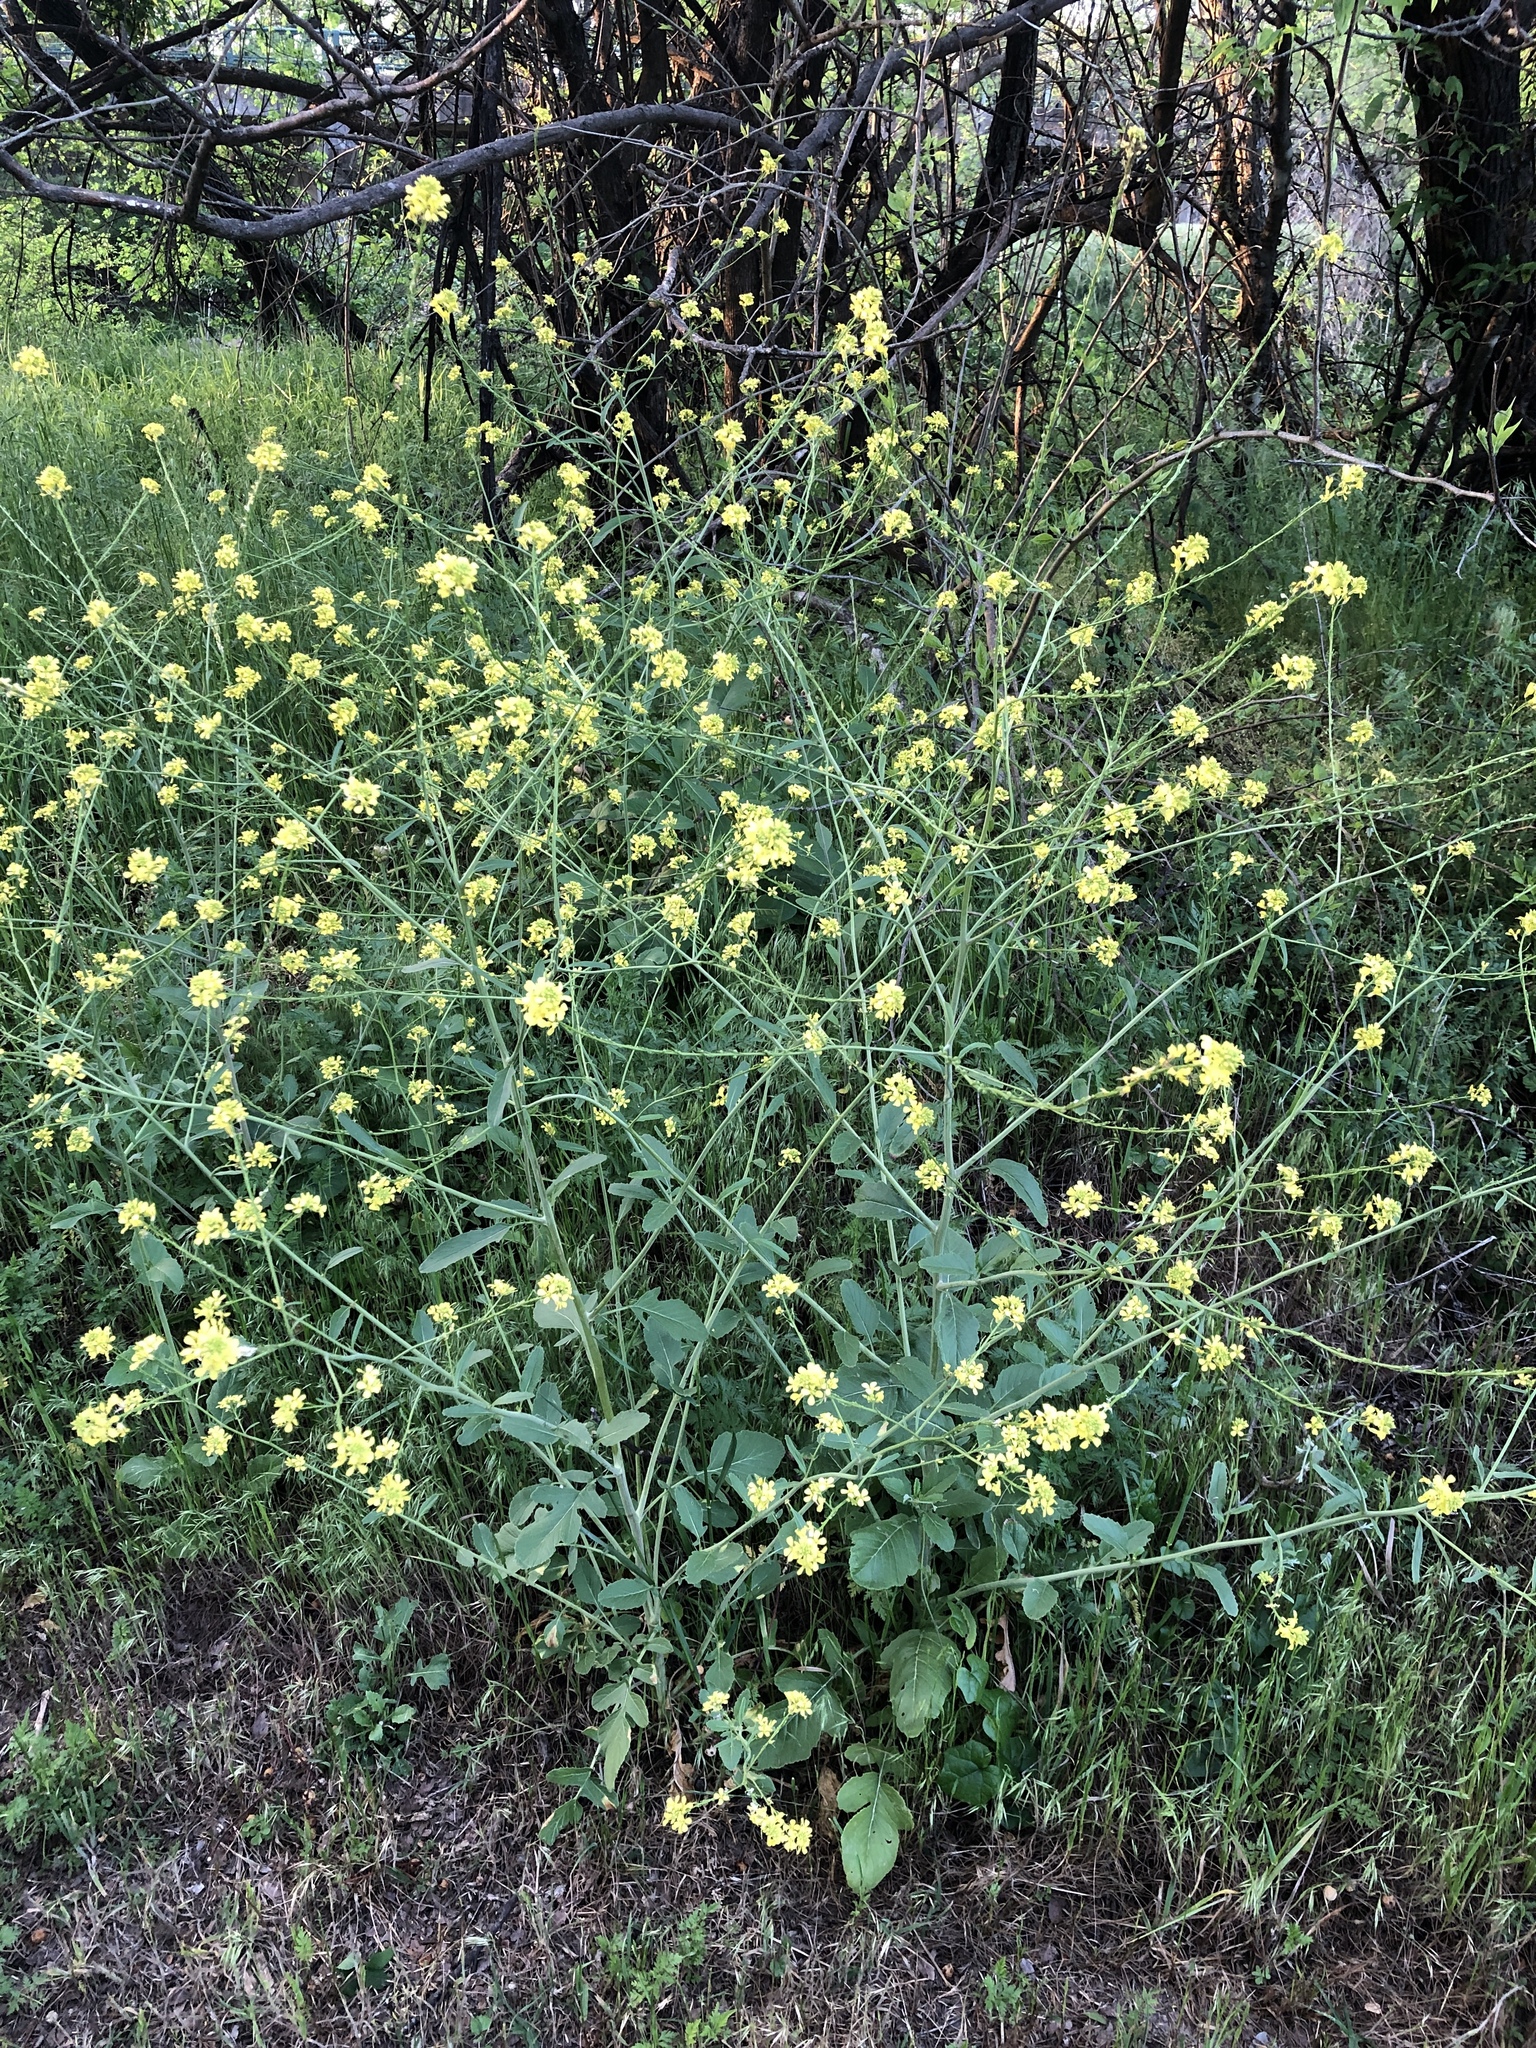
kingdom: Plantae
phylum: Tracheophyta
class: Magnoliopsida
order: Brassicales
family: Brassicaceae
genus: Rapistrum
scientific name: Rapistrum rugosum
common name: Annual bastardcabbage
